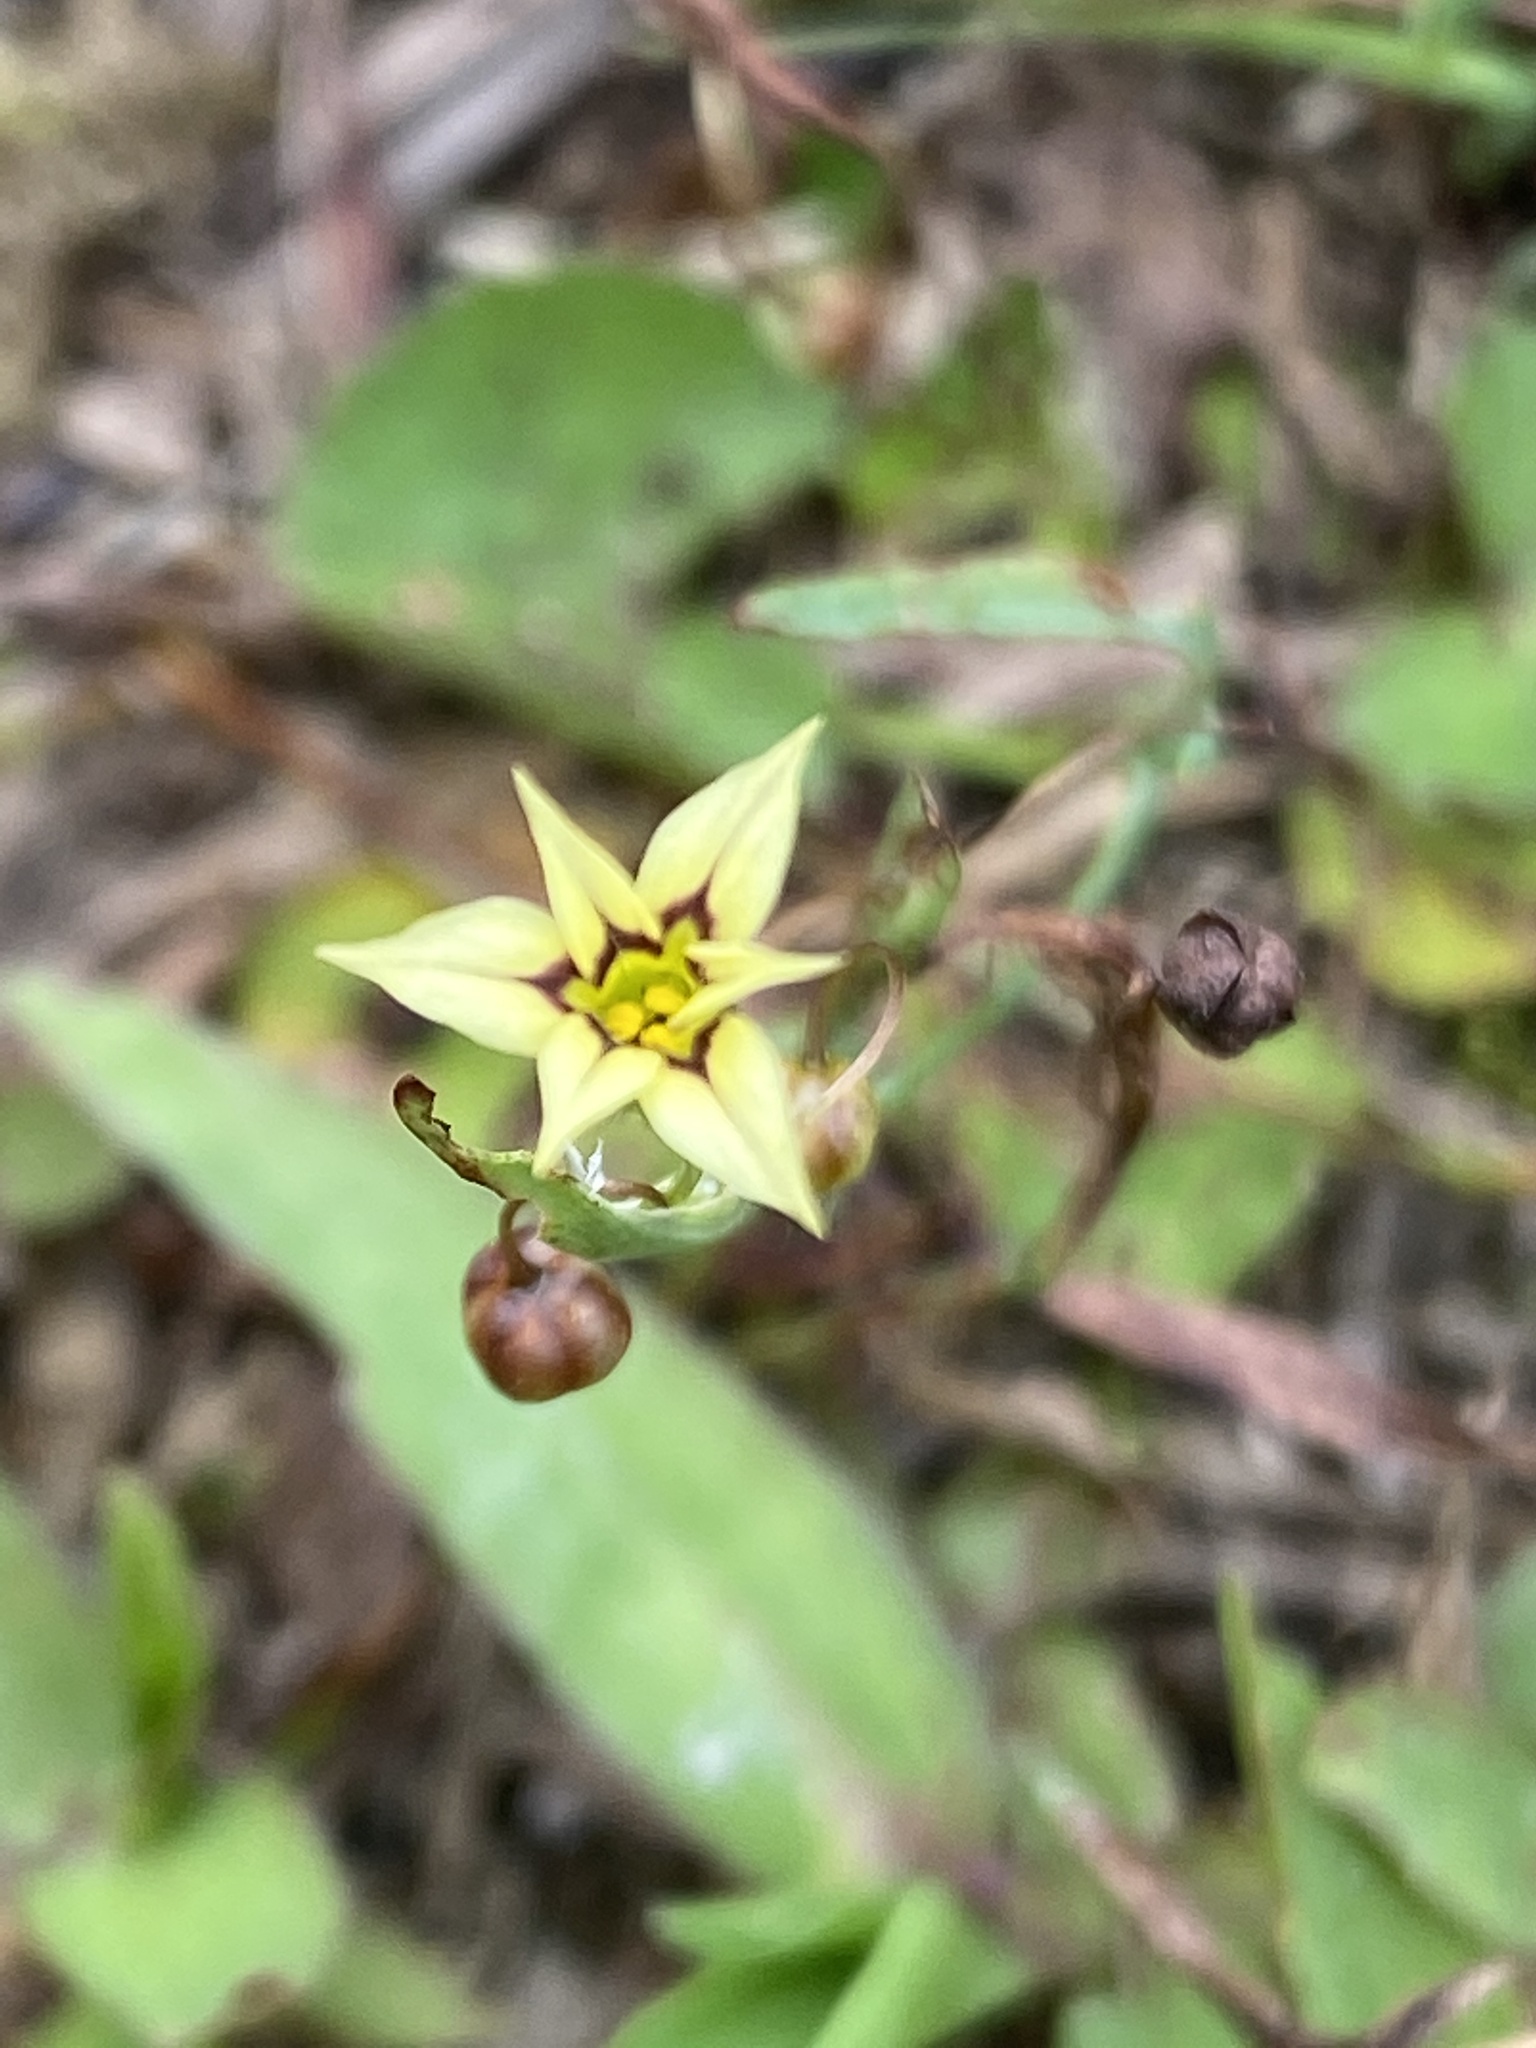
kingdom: Plantae
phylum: Tracheophyta
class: Liliopsida
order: Asparagales
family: Iridaceae
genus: Sisyrinchium
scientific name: Sisyrinchium micranthum
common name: Bermuda pigroot
